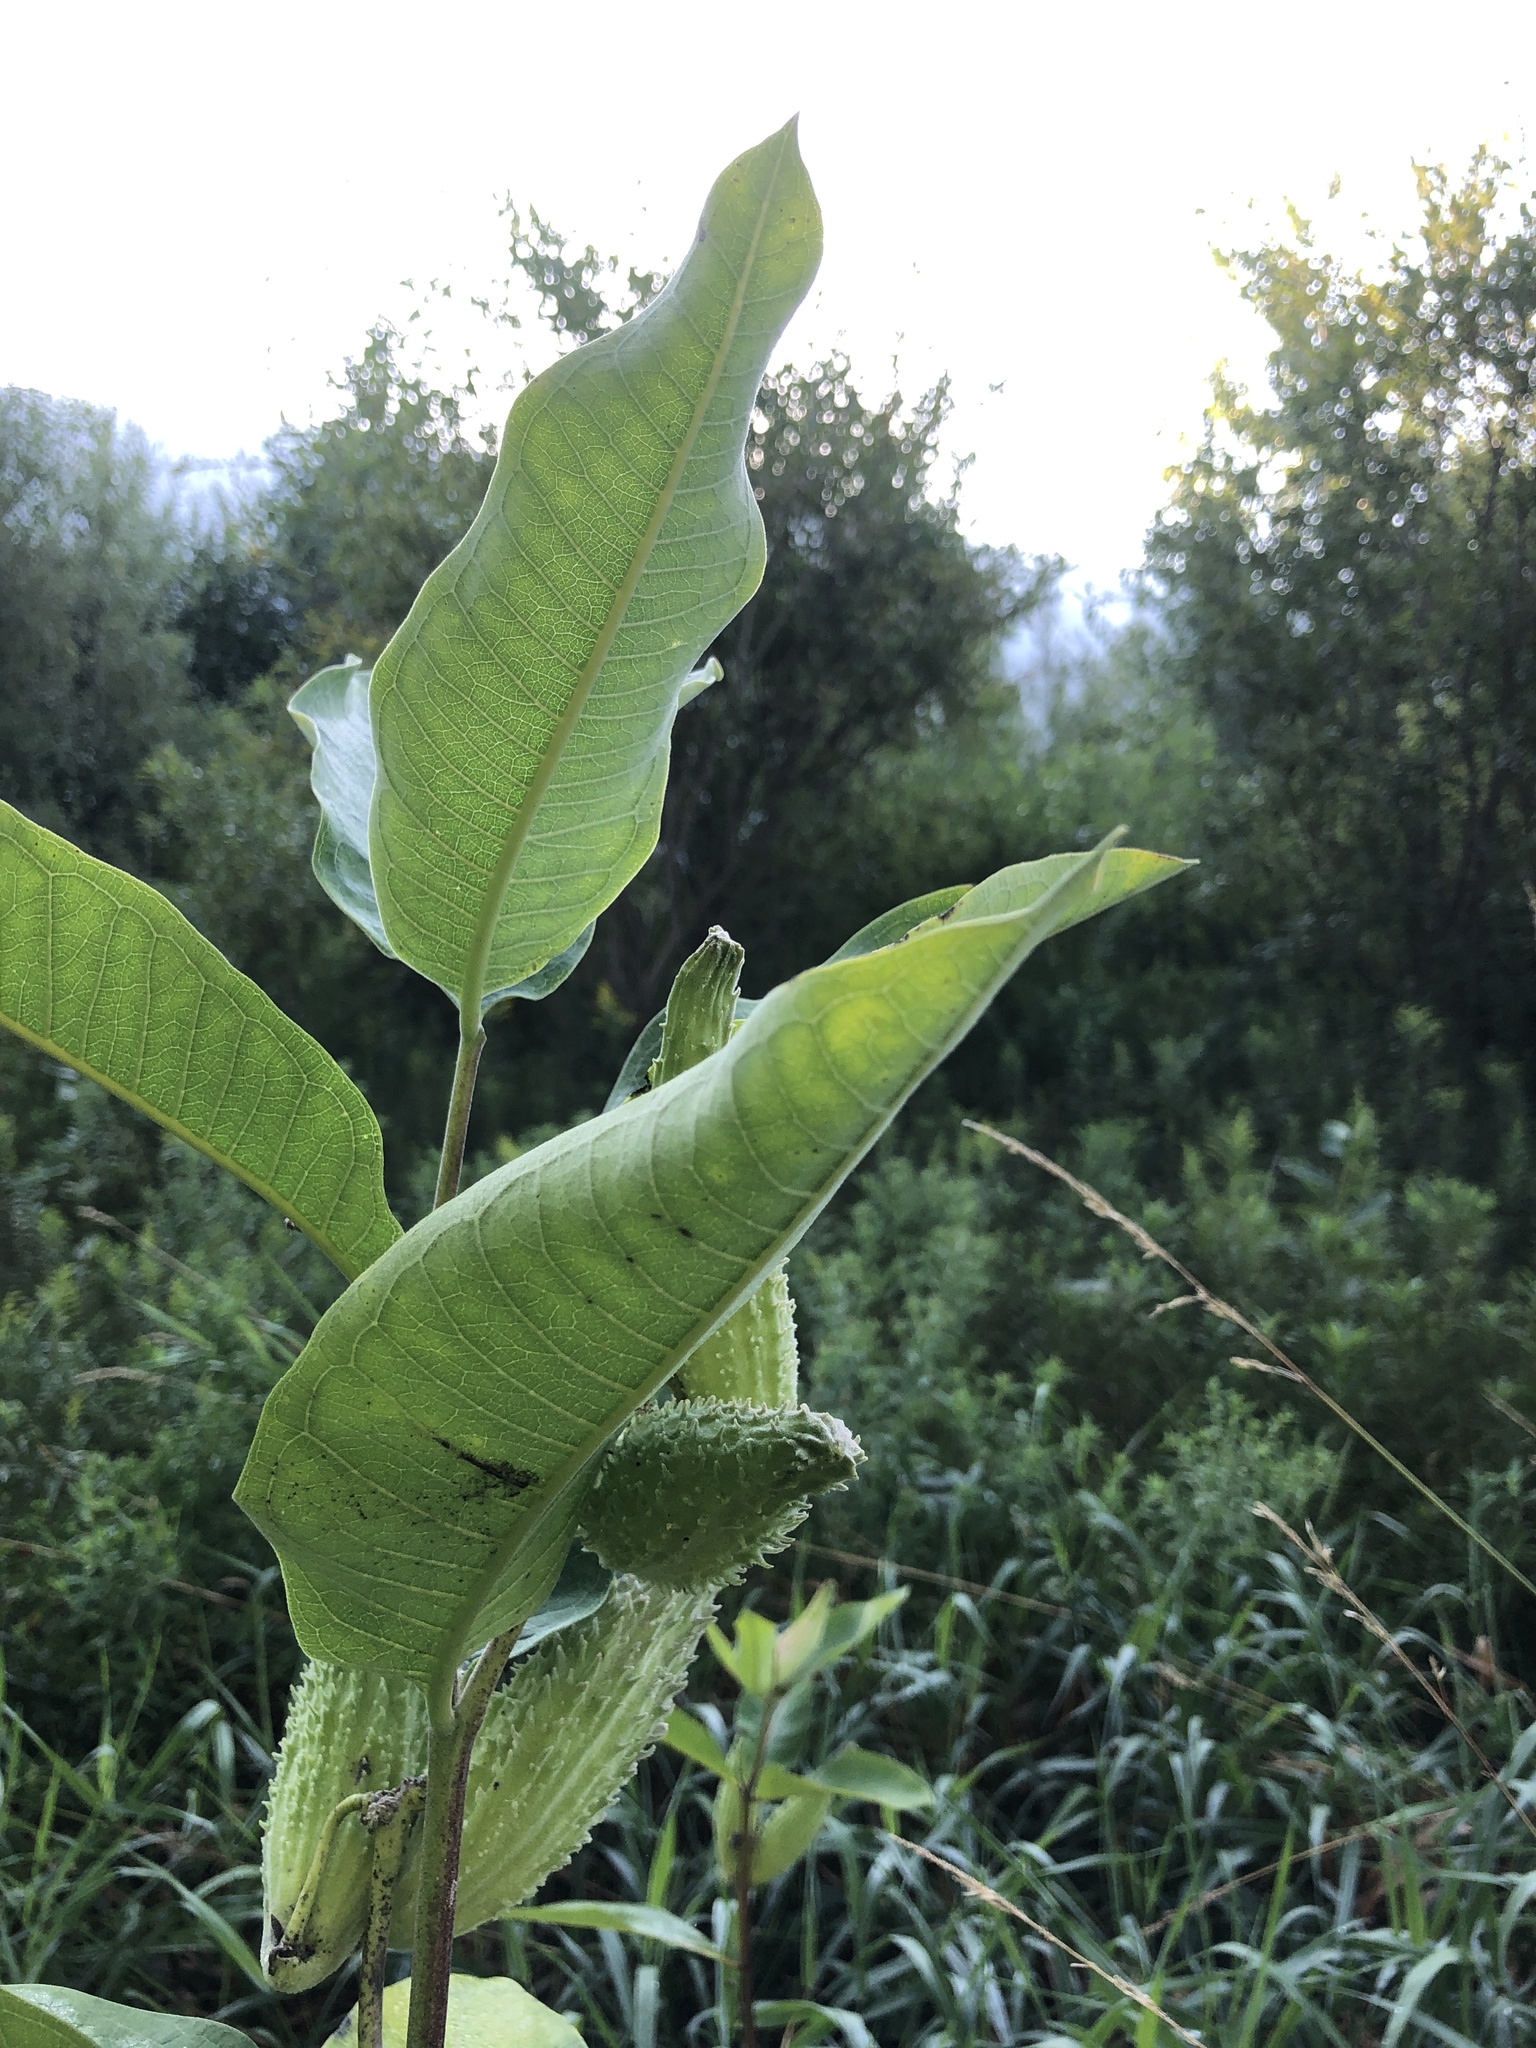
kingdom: Plantae
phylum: Tracheophyta
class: Magnoliopsida
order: Gentianales
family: Apocynaceae
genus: Asclepias
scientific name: Asclepias syriaca
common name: Common milkweed
